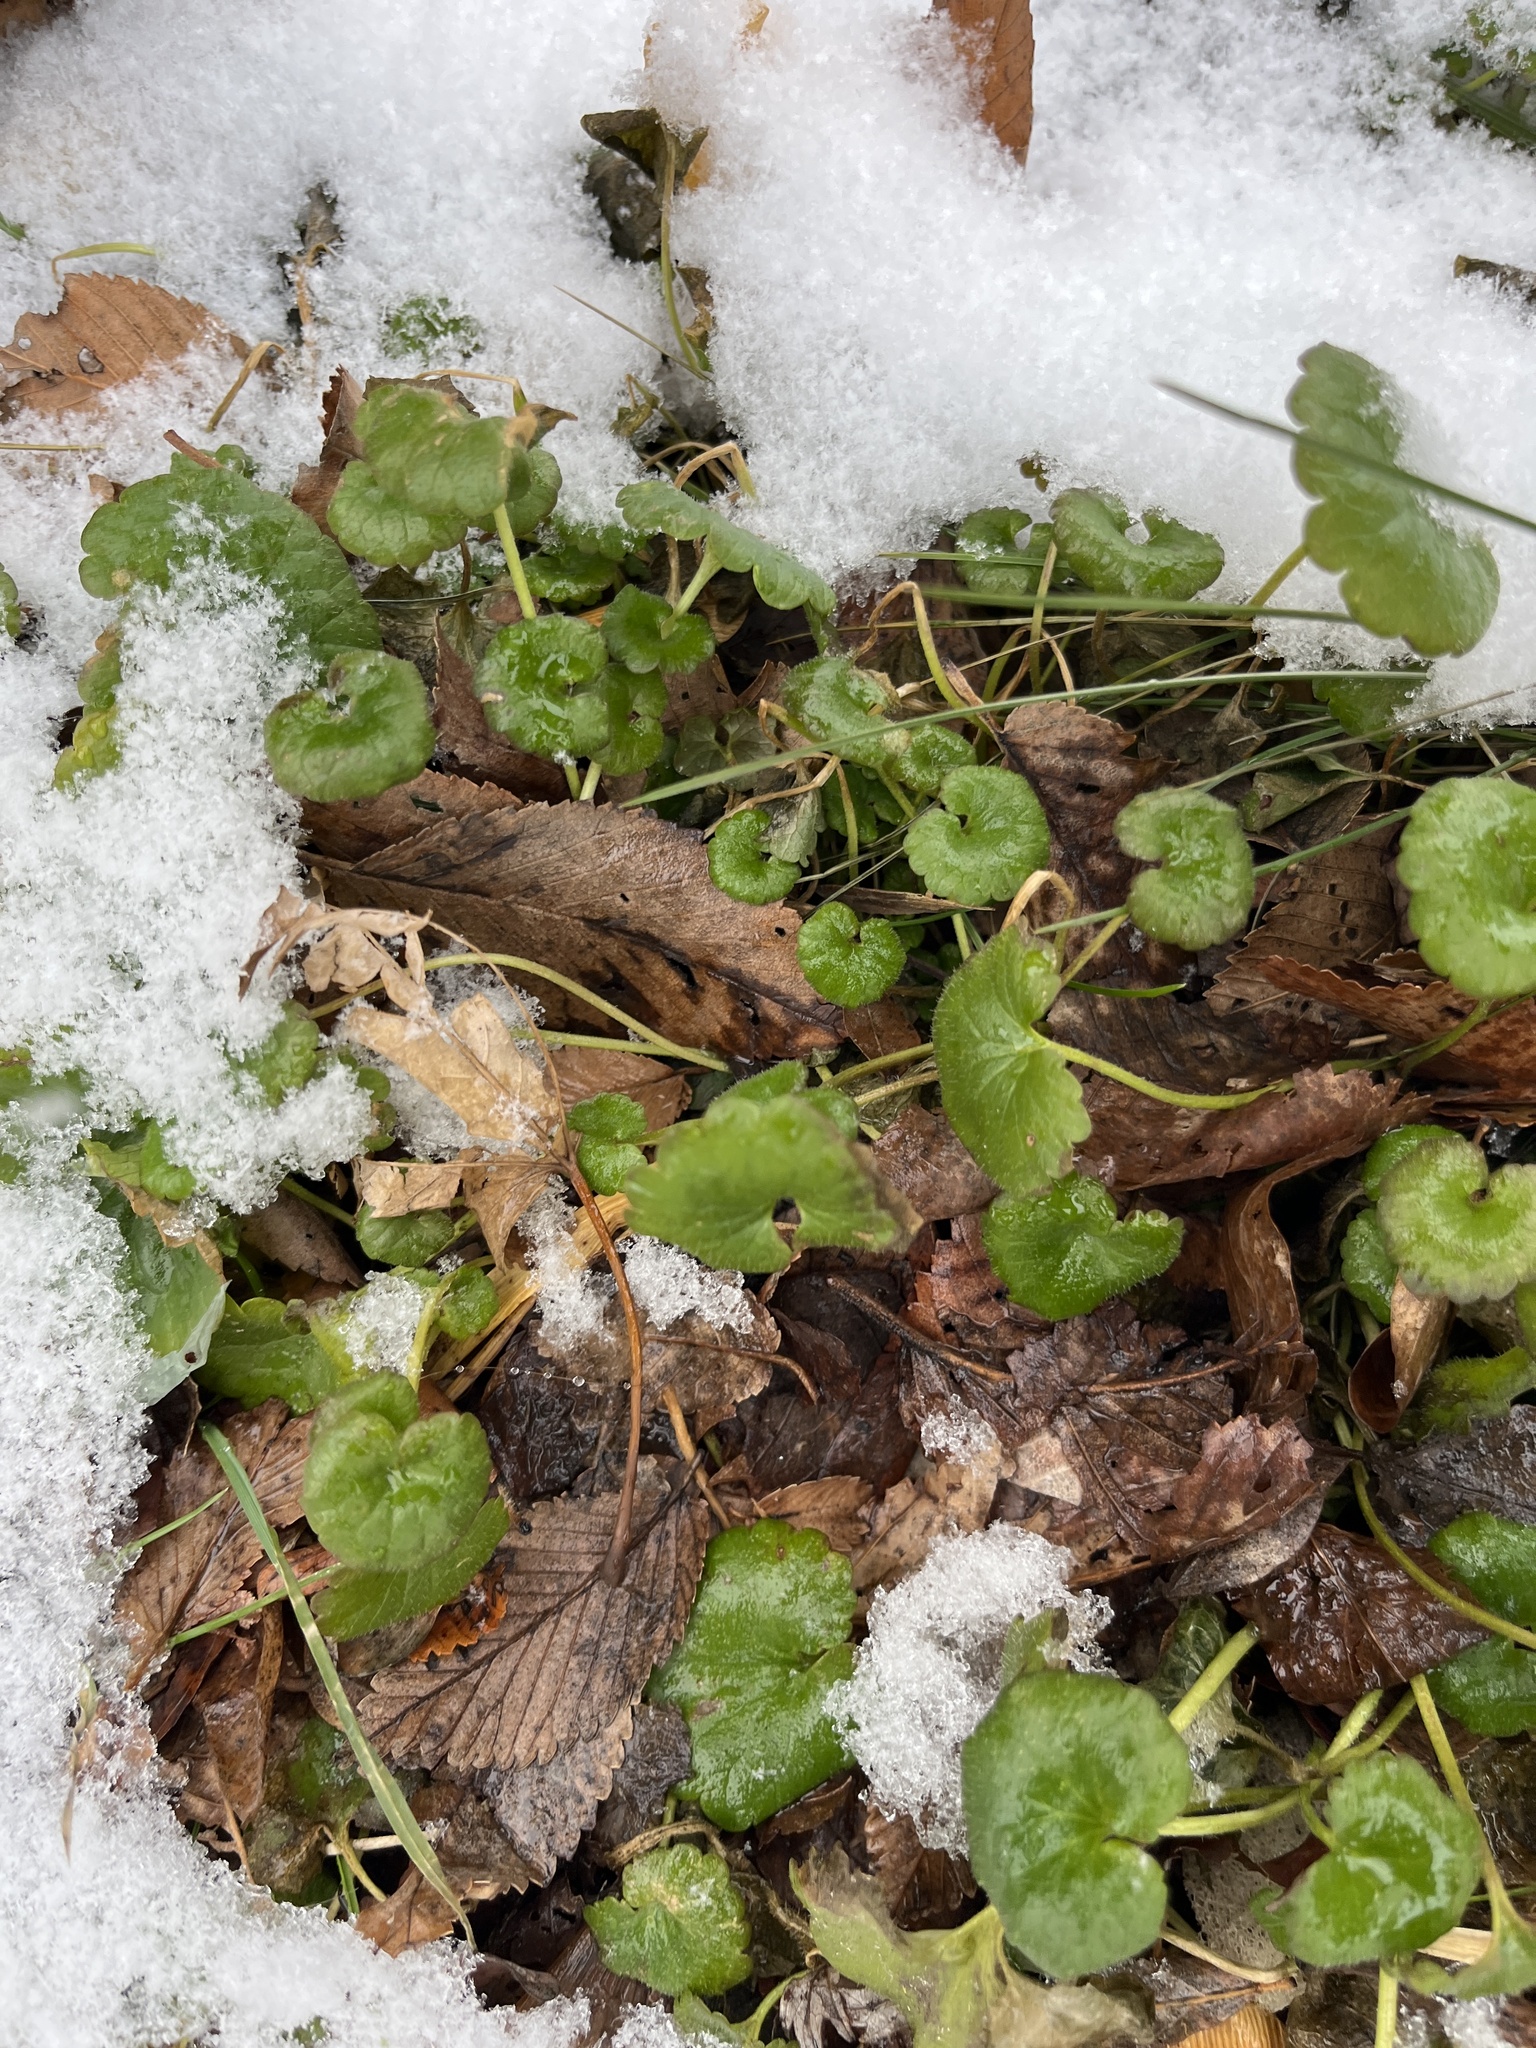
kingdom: Plantae
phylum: Tracheophyta
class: Magnoliopsida
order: Lamiales
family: Lamiaceae
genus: Glechoma
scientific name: Glechoma hederacea
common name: Ground ivy
